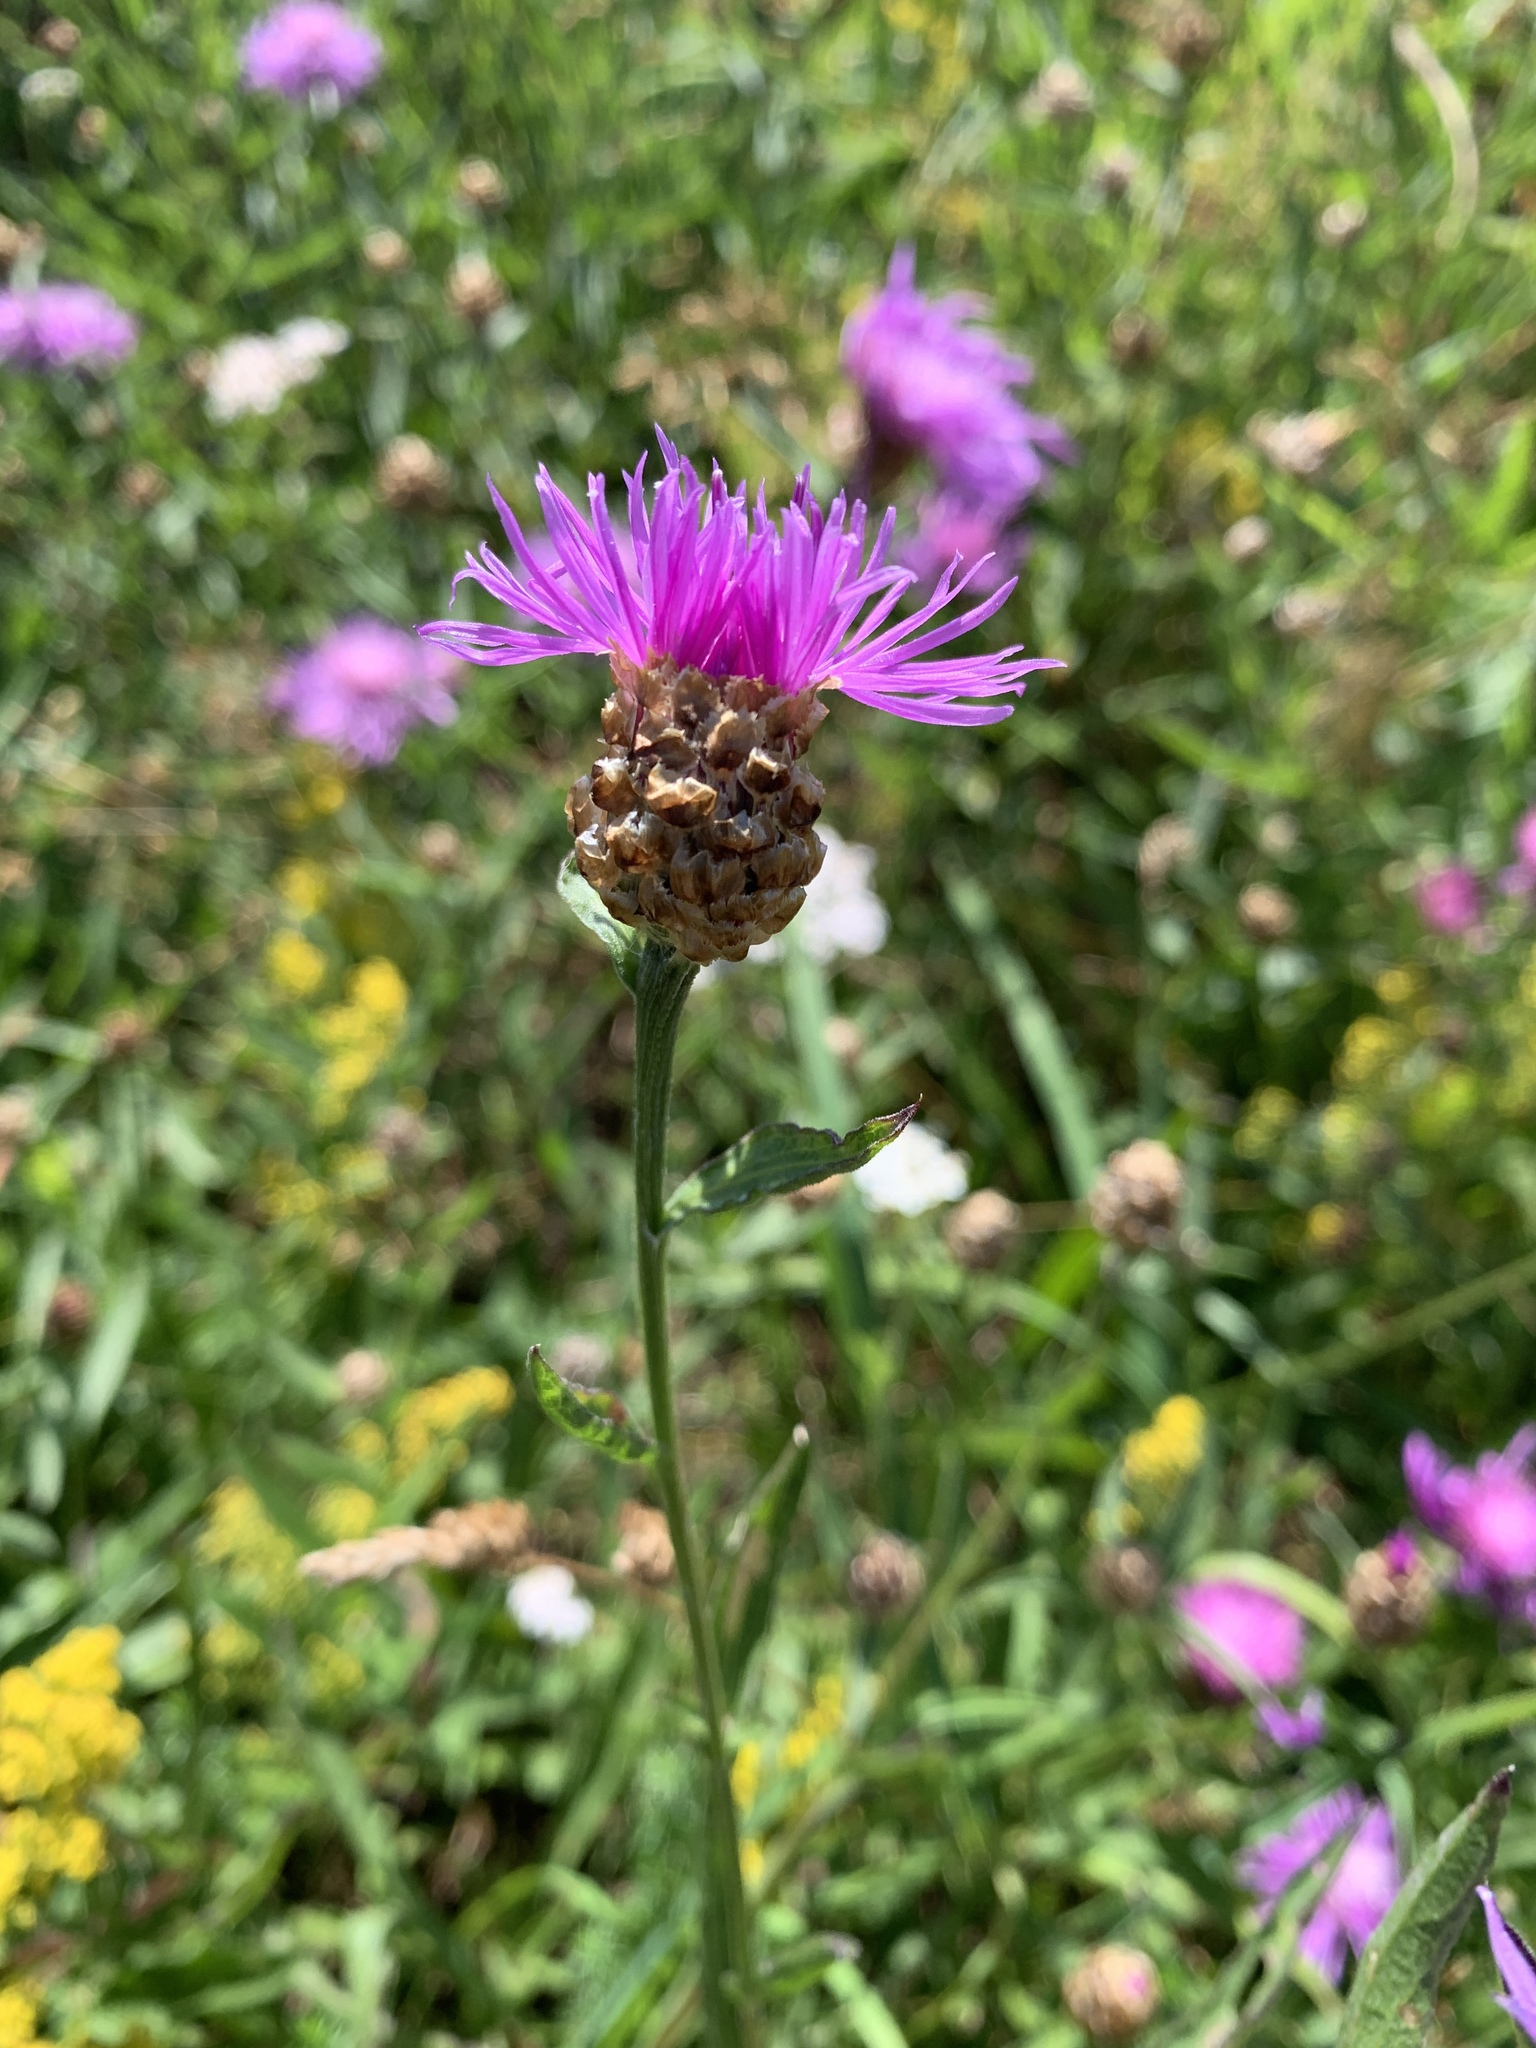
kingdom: Plantae
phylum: Tracheophyta
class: Magnoliopsida
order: Asterales
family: Asteraceae
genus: Centaurea
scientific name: Centaurea jacea
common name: Brown knapweed
